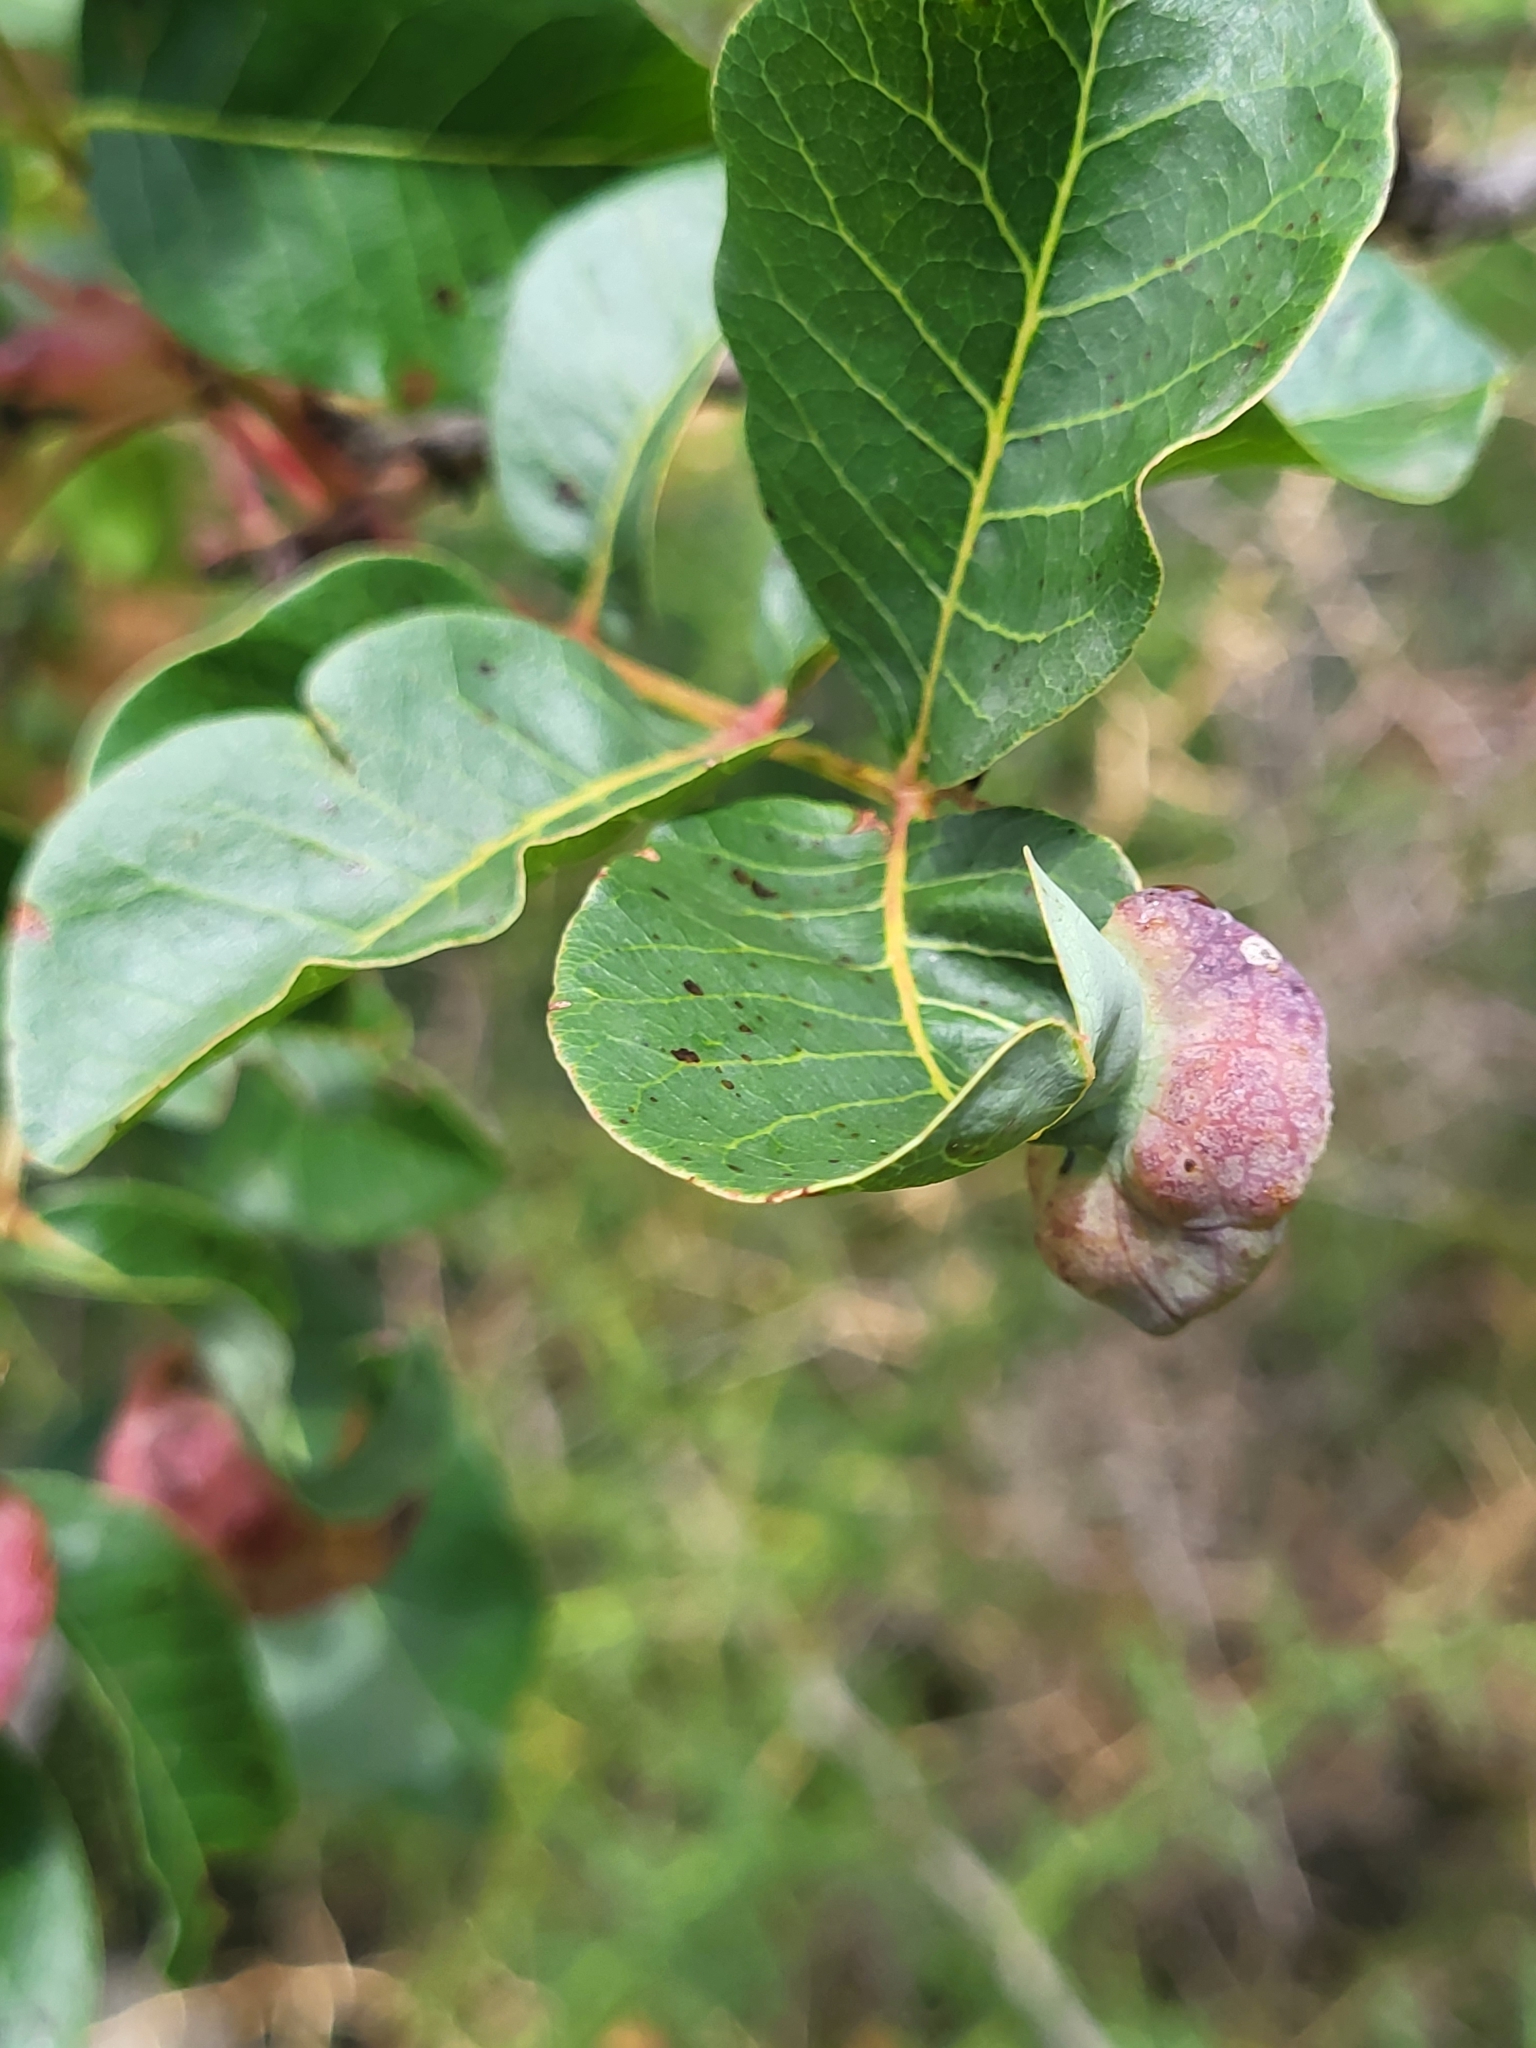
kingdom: Animalia
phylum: Arthropoda
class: Insecta
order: Hemiptera
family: Aphididae
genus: Forda
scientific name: Forda formicaria
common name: Root aphid
